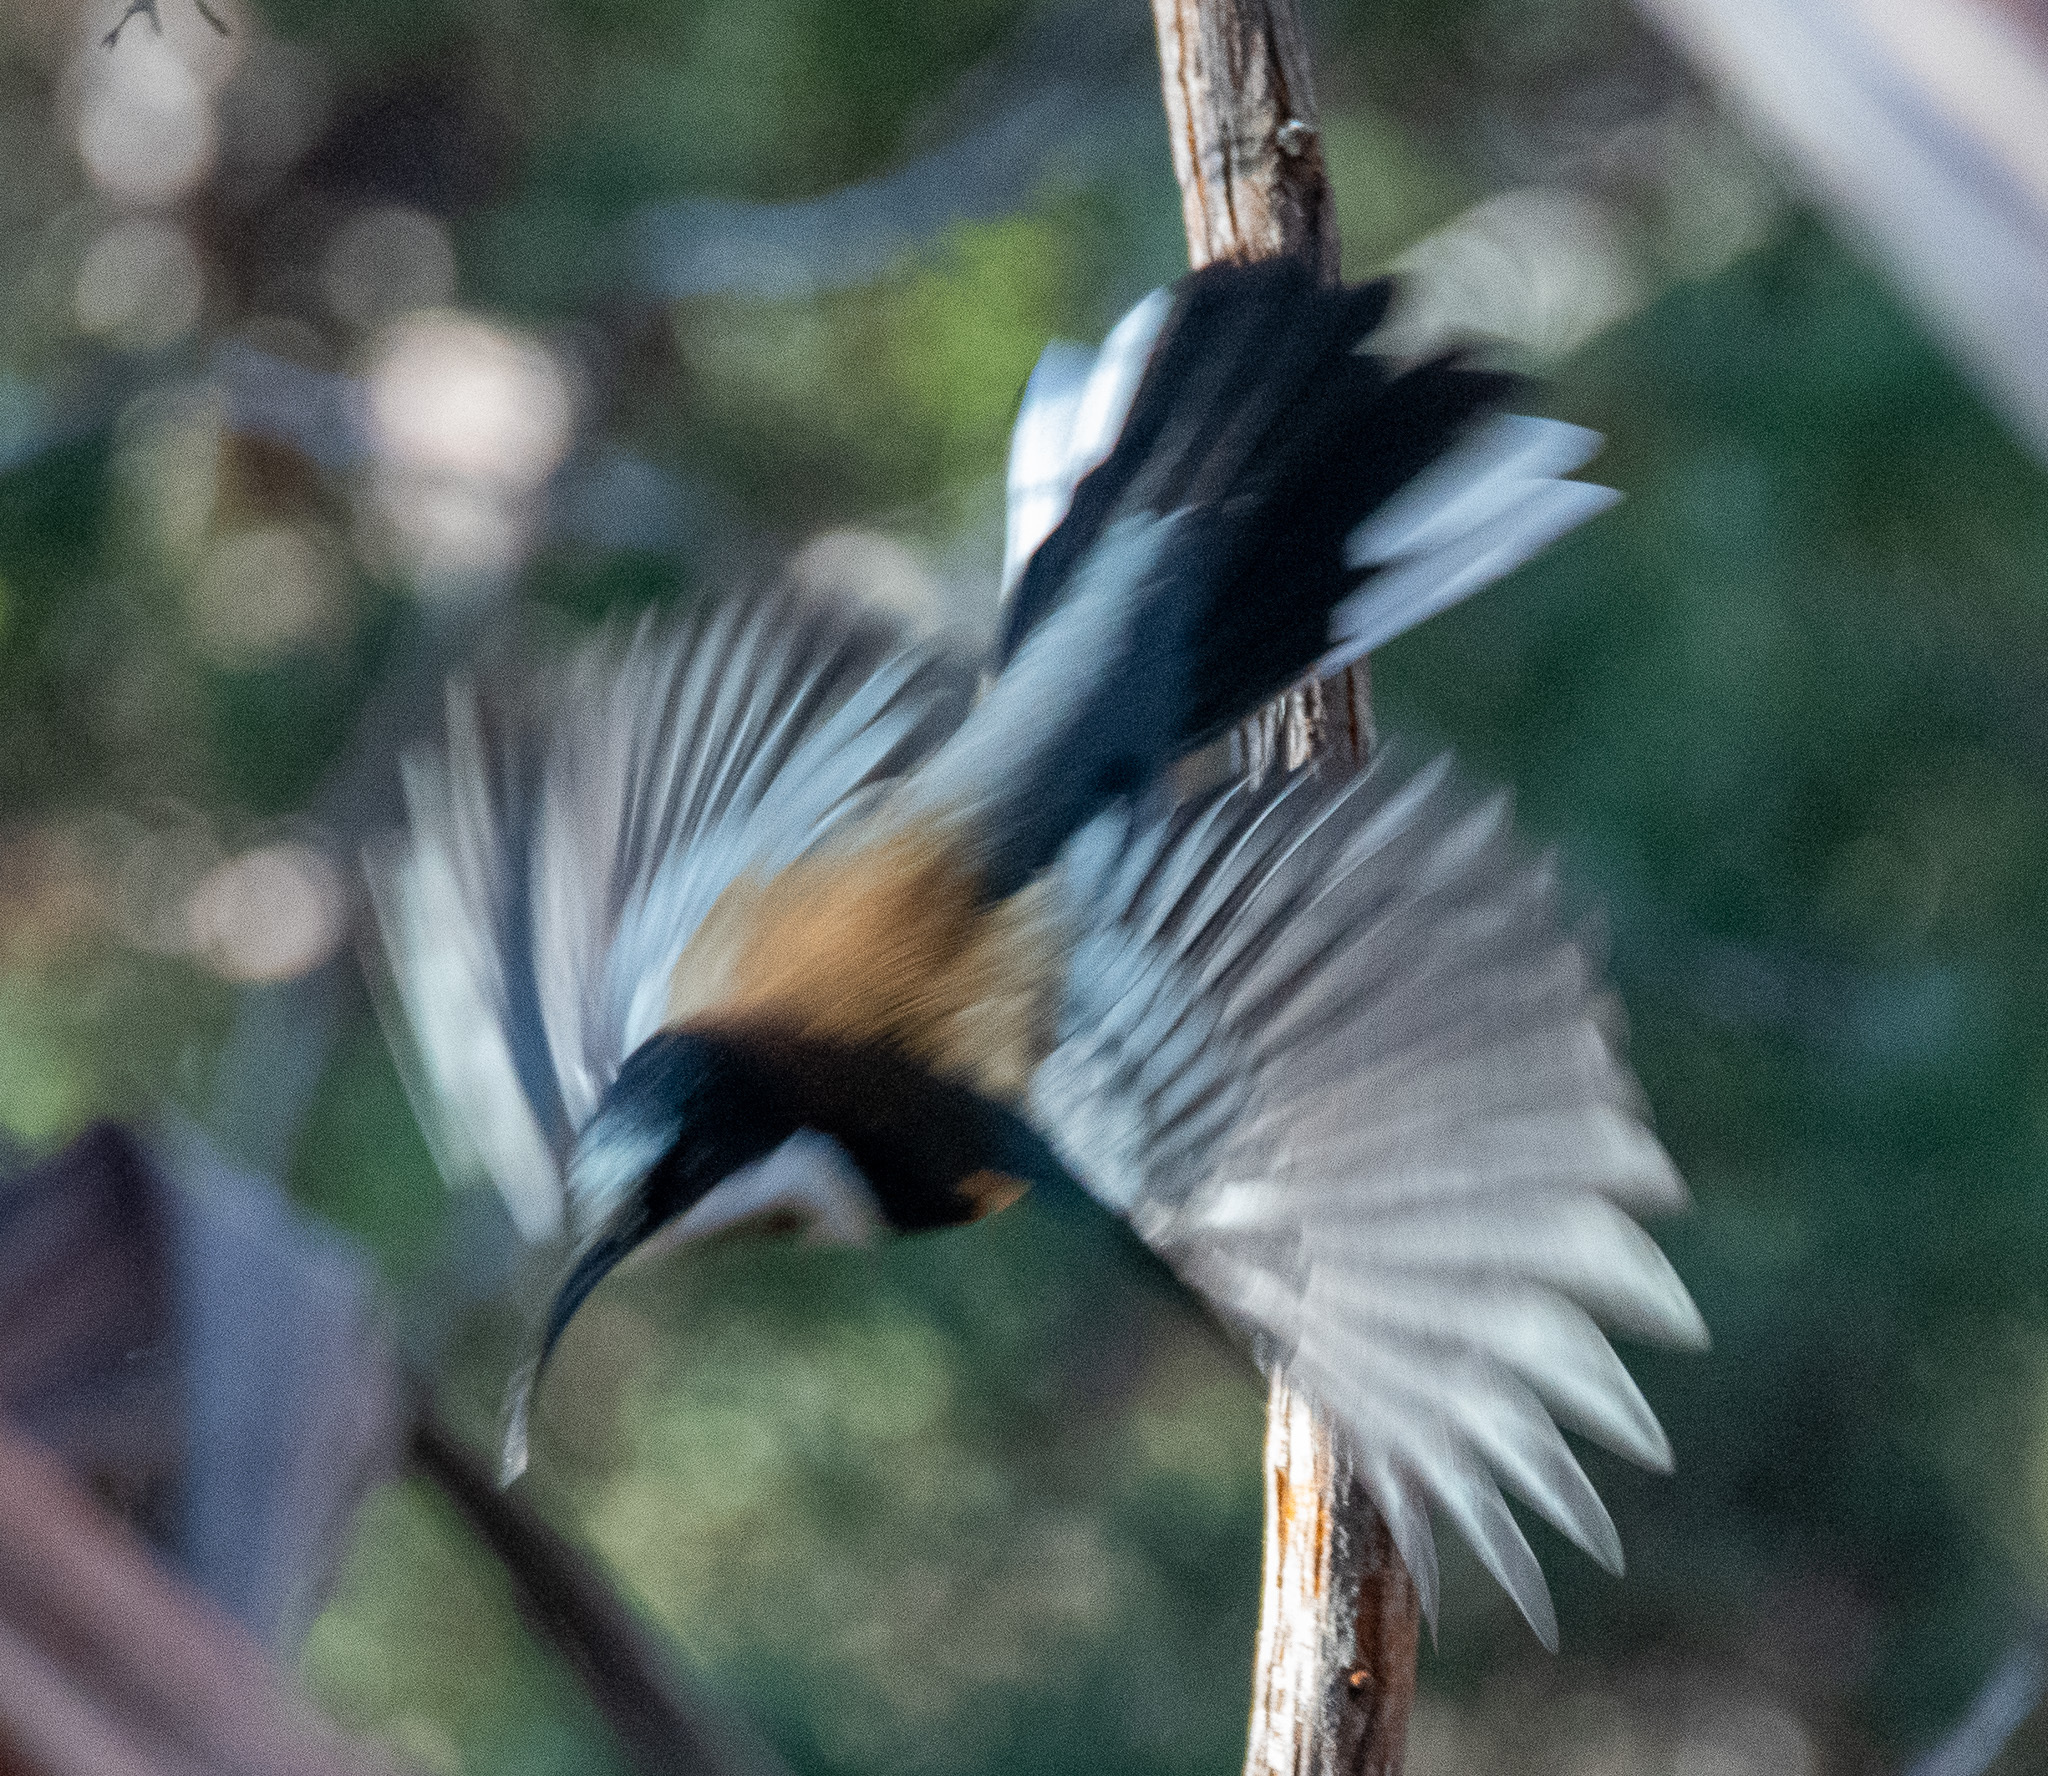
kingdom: Animalia
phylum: Chordata
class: Aves
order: Passeriformes
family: Meliphagidae
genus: Acanthorhynchus
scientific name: Acanthorhynchus tenuirostris
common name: Eastern spinebill
